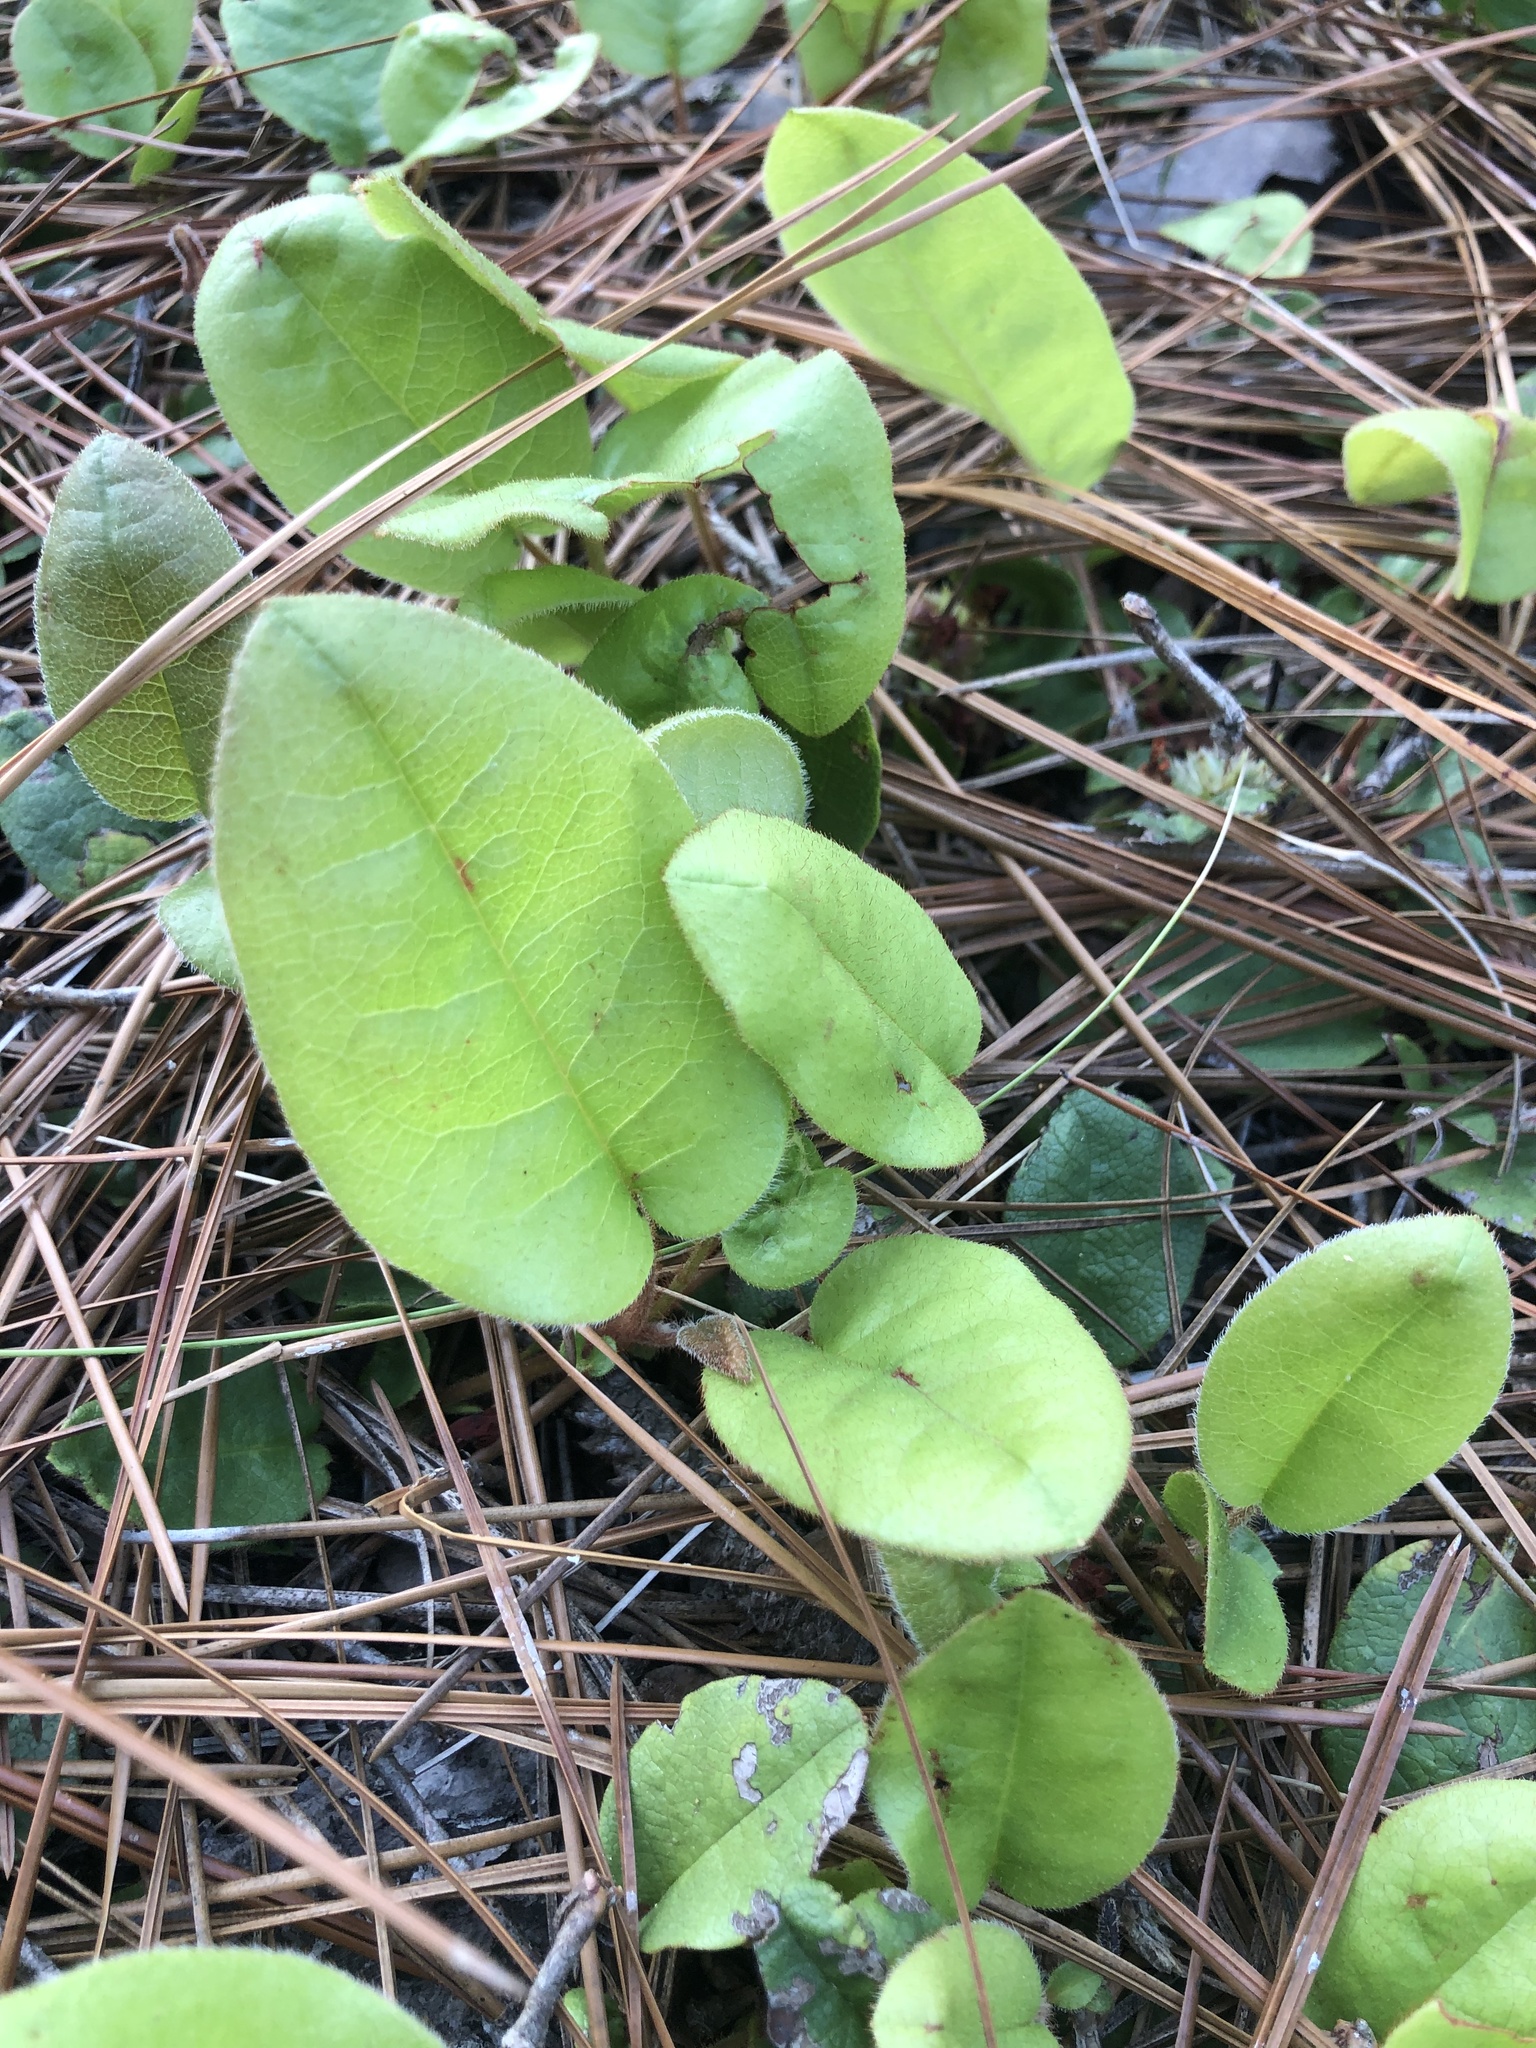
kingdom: Plantae
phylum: Tracheophyta
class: Magnoliopsida
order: Ericales
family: Ericaceae
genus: Epigaea
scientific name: Epigaea repens
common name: Gravelroot
